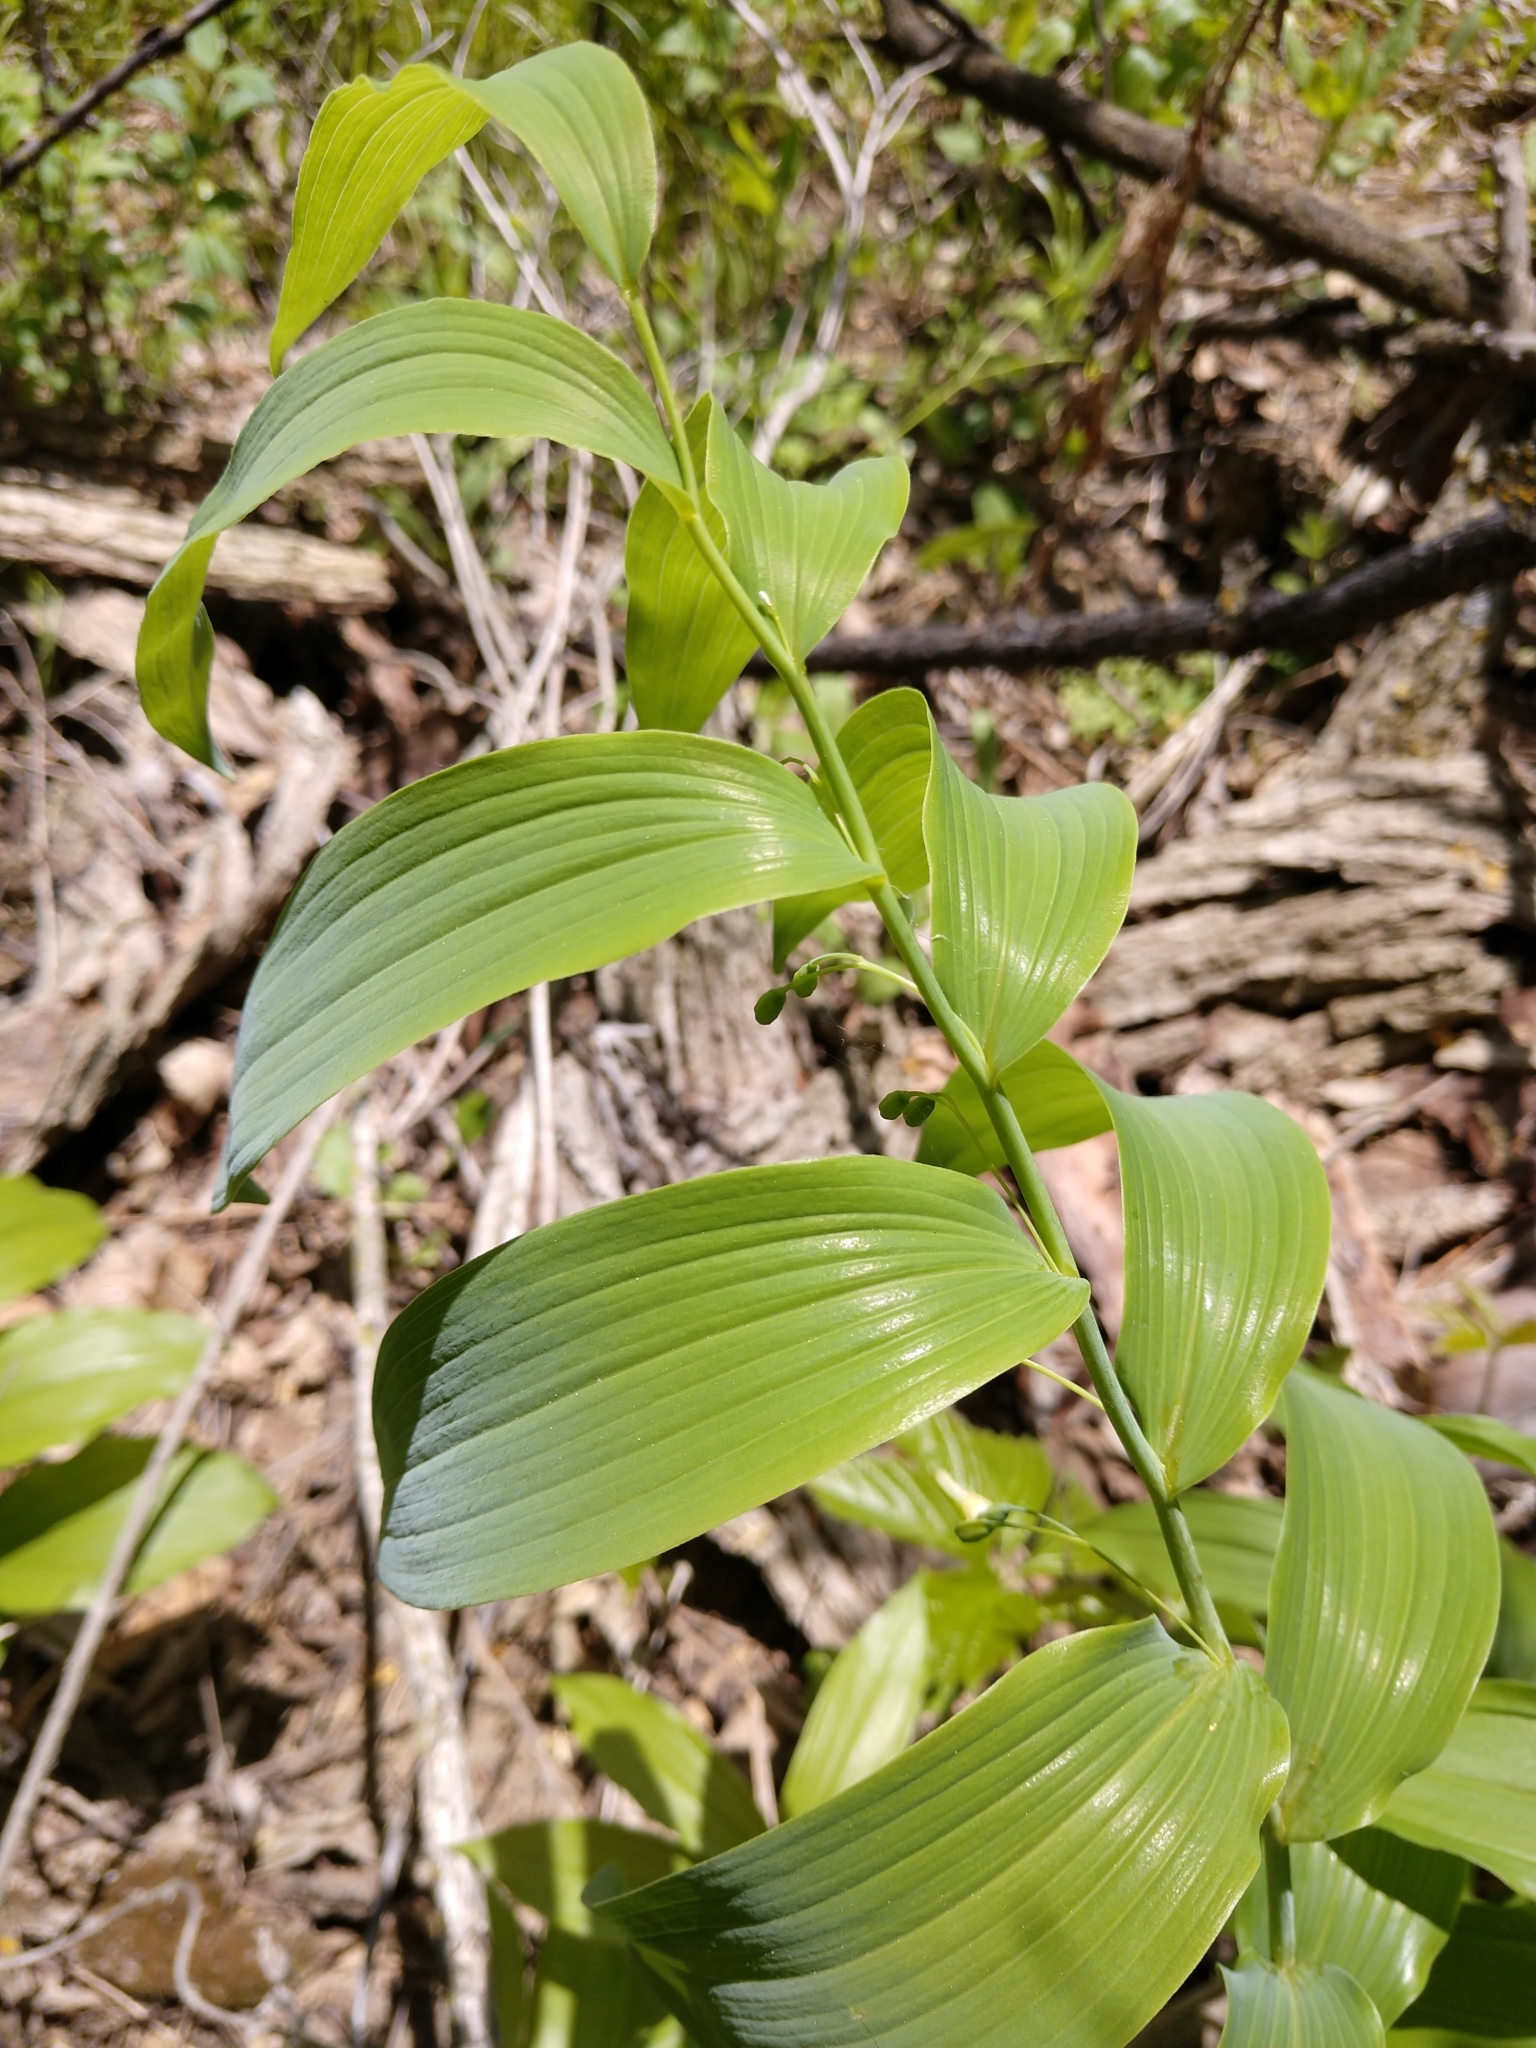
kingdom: Plantae
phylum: Tracheophyta
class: Liliopsida
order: Asparagales
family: Asparagaceae
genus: Polygonatum
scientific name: Polygonatum biflorum
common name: American solomon's-seal
